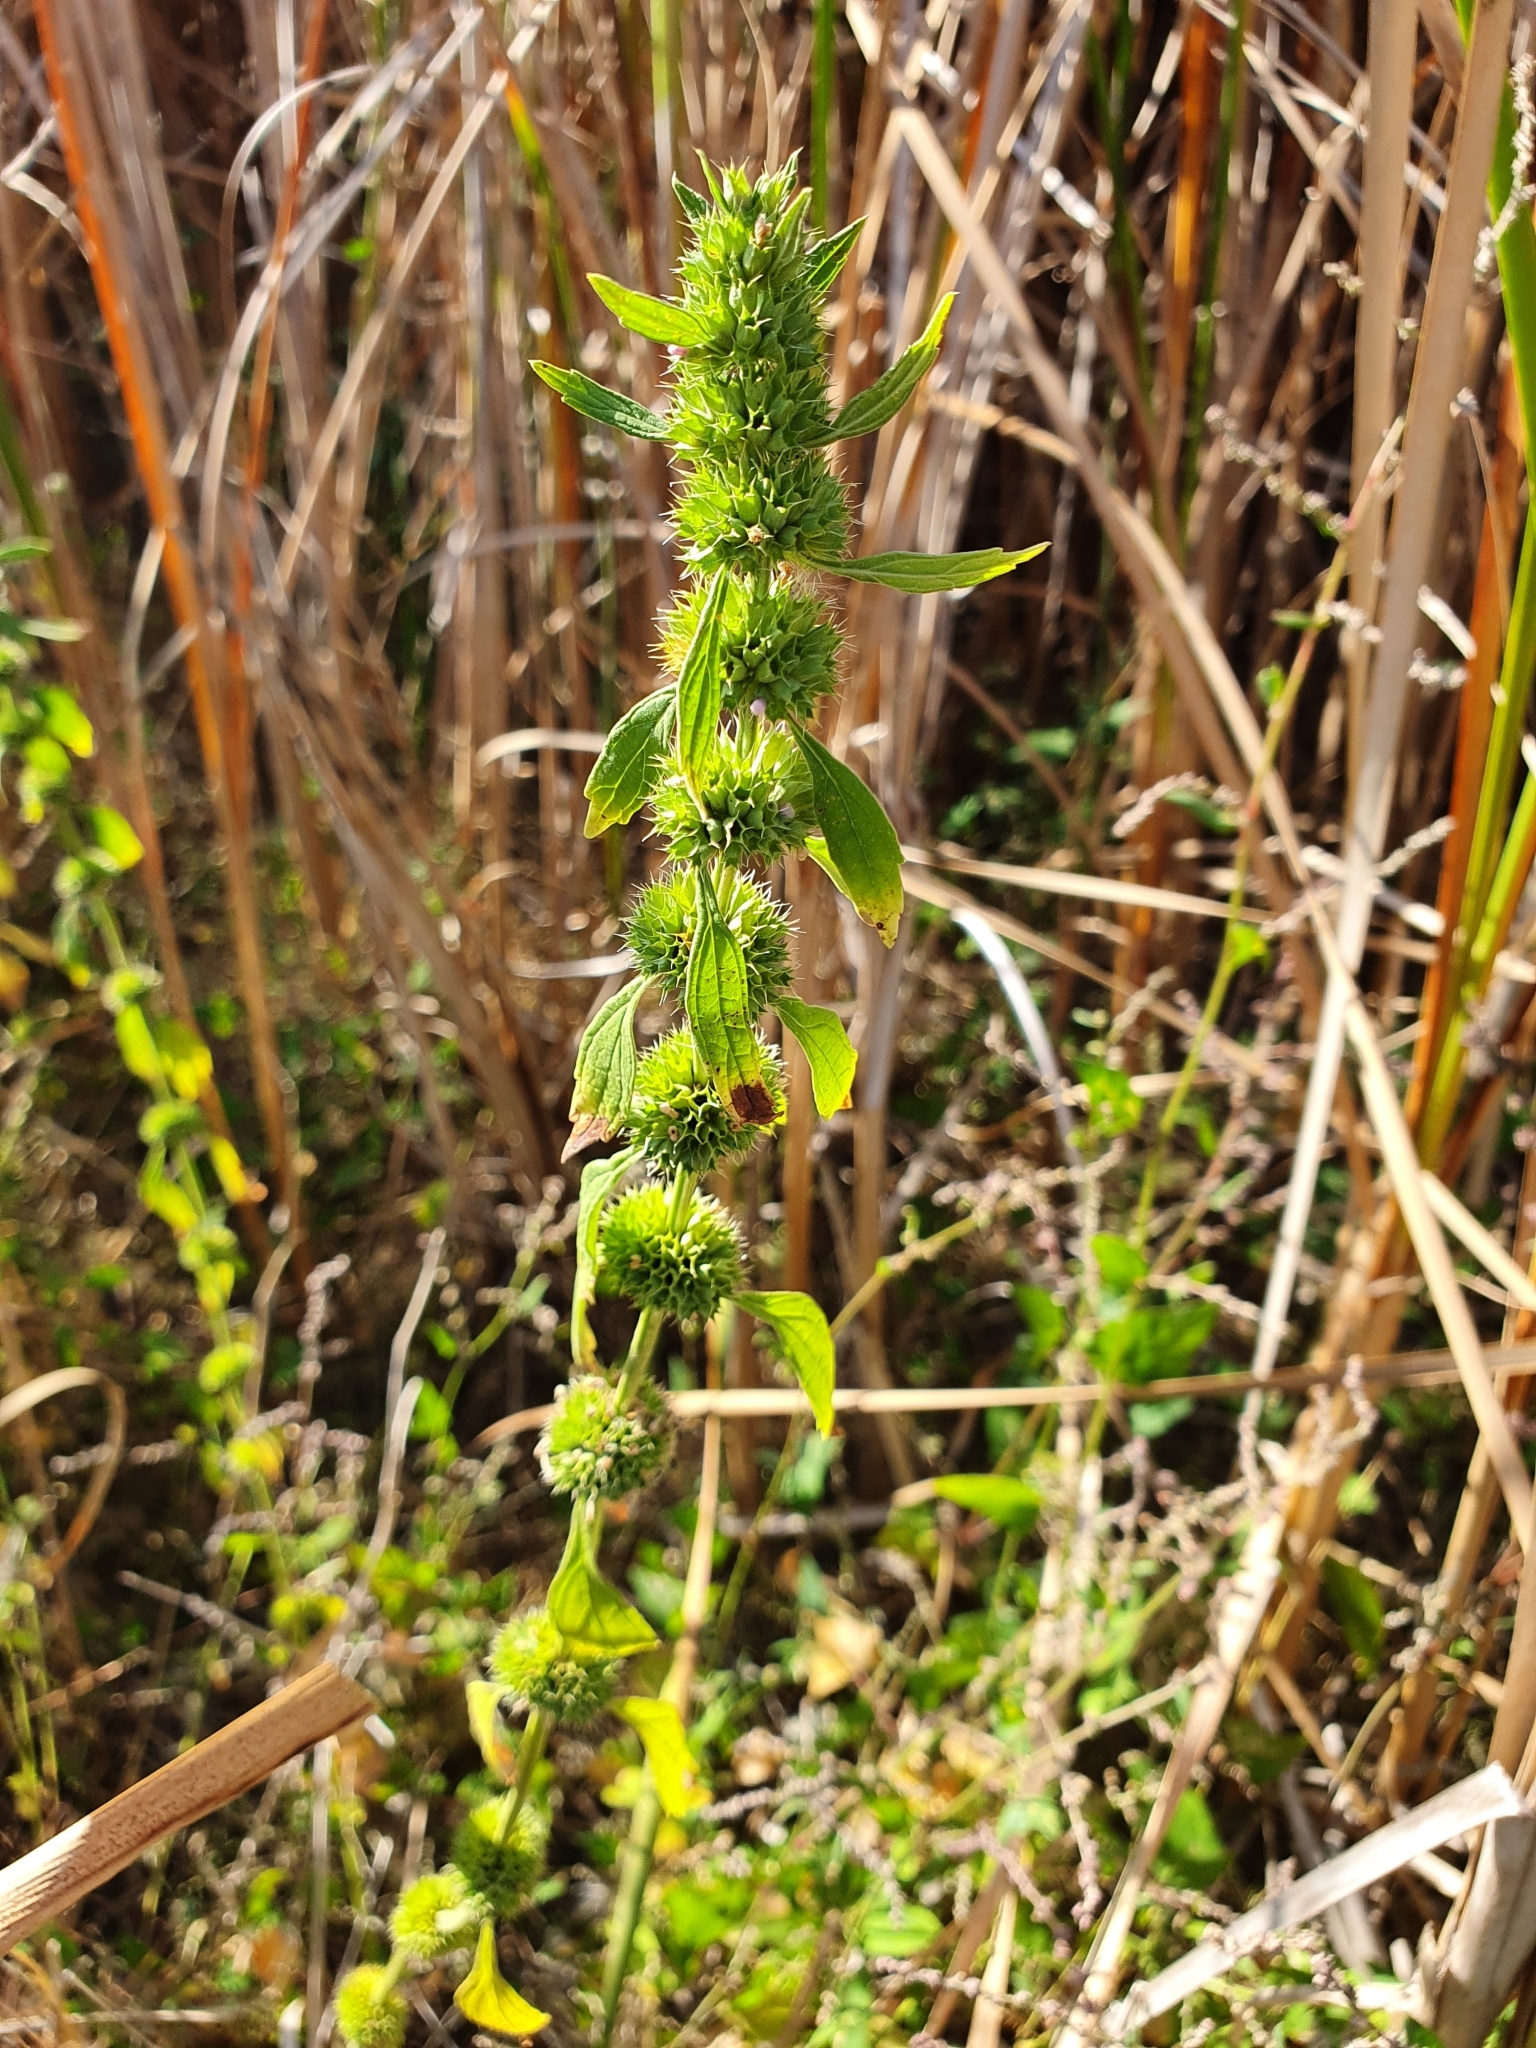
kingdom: Plantae
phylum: Tracheophyta
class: Magnoliopsida
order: Lamiales
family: Lamiaceae
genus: Chaiturus
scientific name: Chaiturus marrubiastrum
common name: Lion's tail
